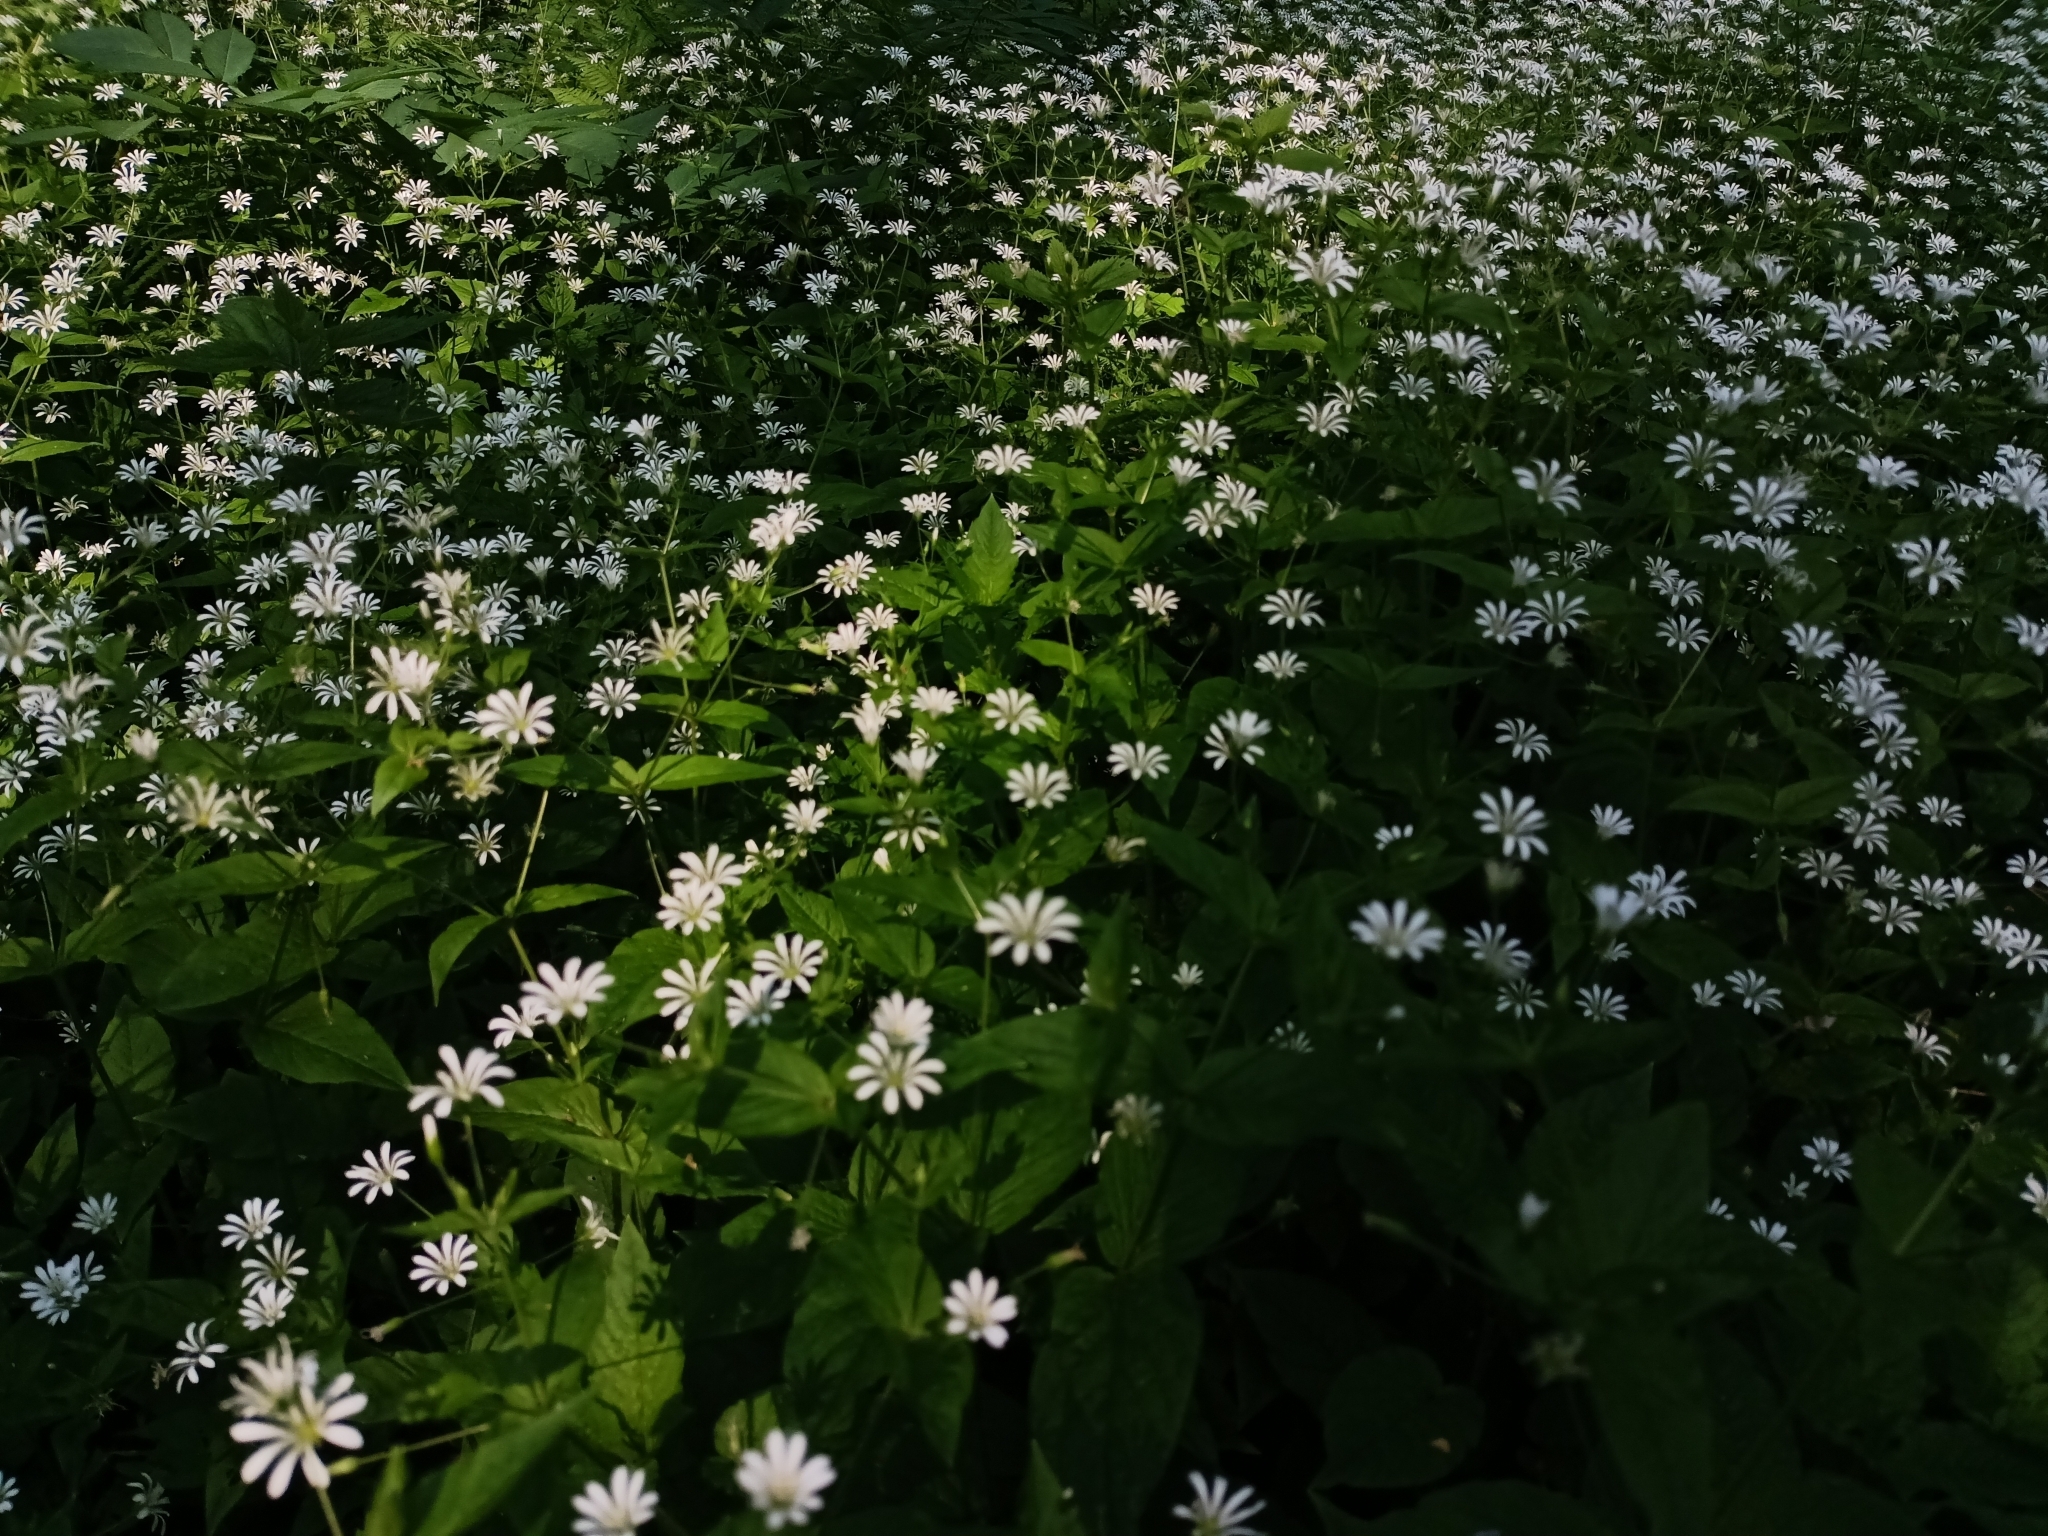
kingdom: Plantae
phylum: Tracheophyta
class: Magnoliopsida
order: Caryophyllales
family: Caryophyllaceae
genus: Stellaria
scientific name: Stellaria nemorum
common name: Wood stitchwort
